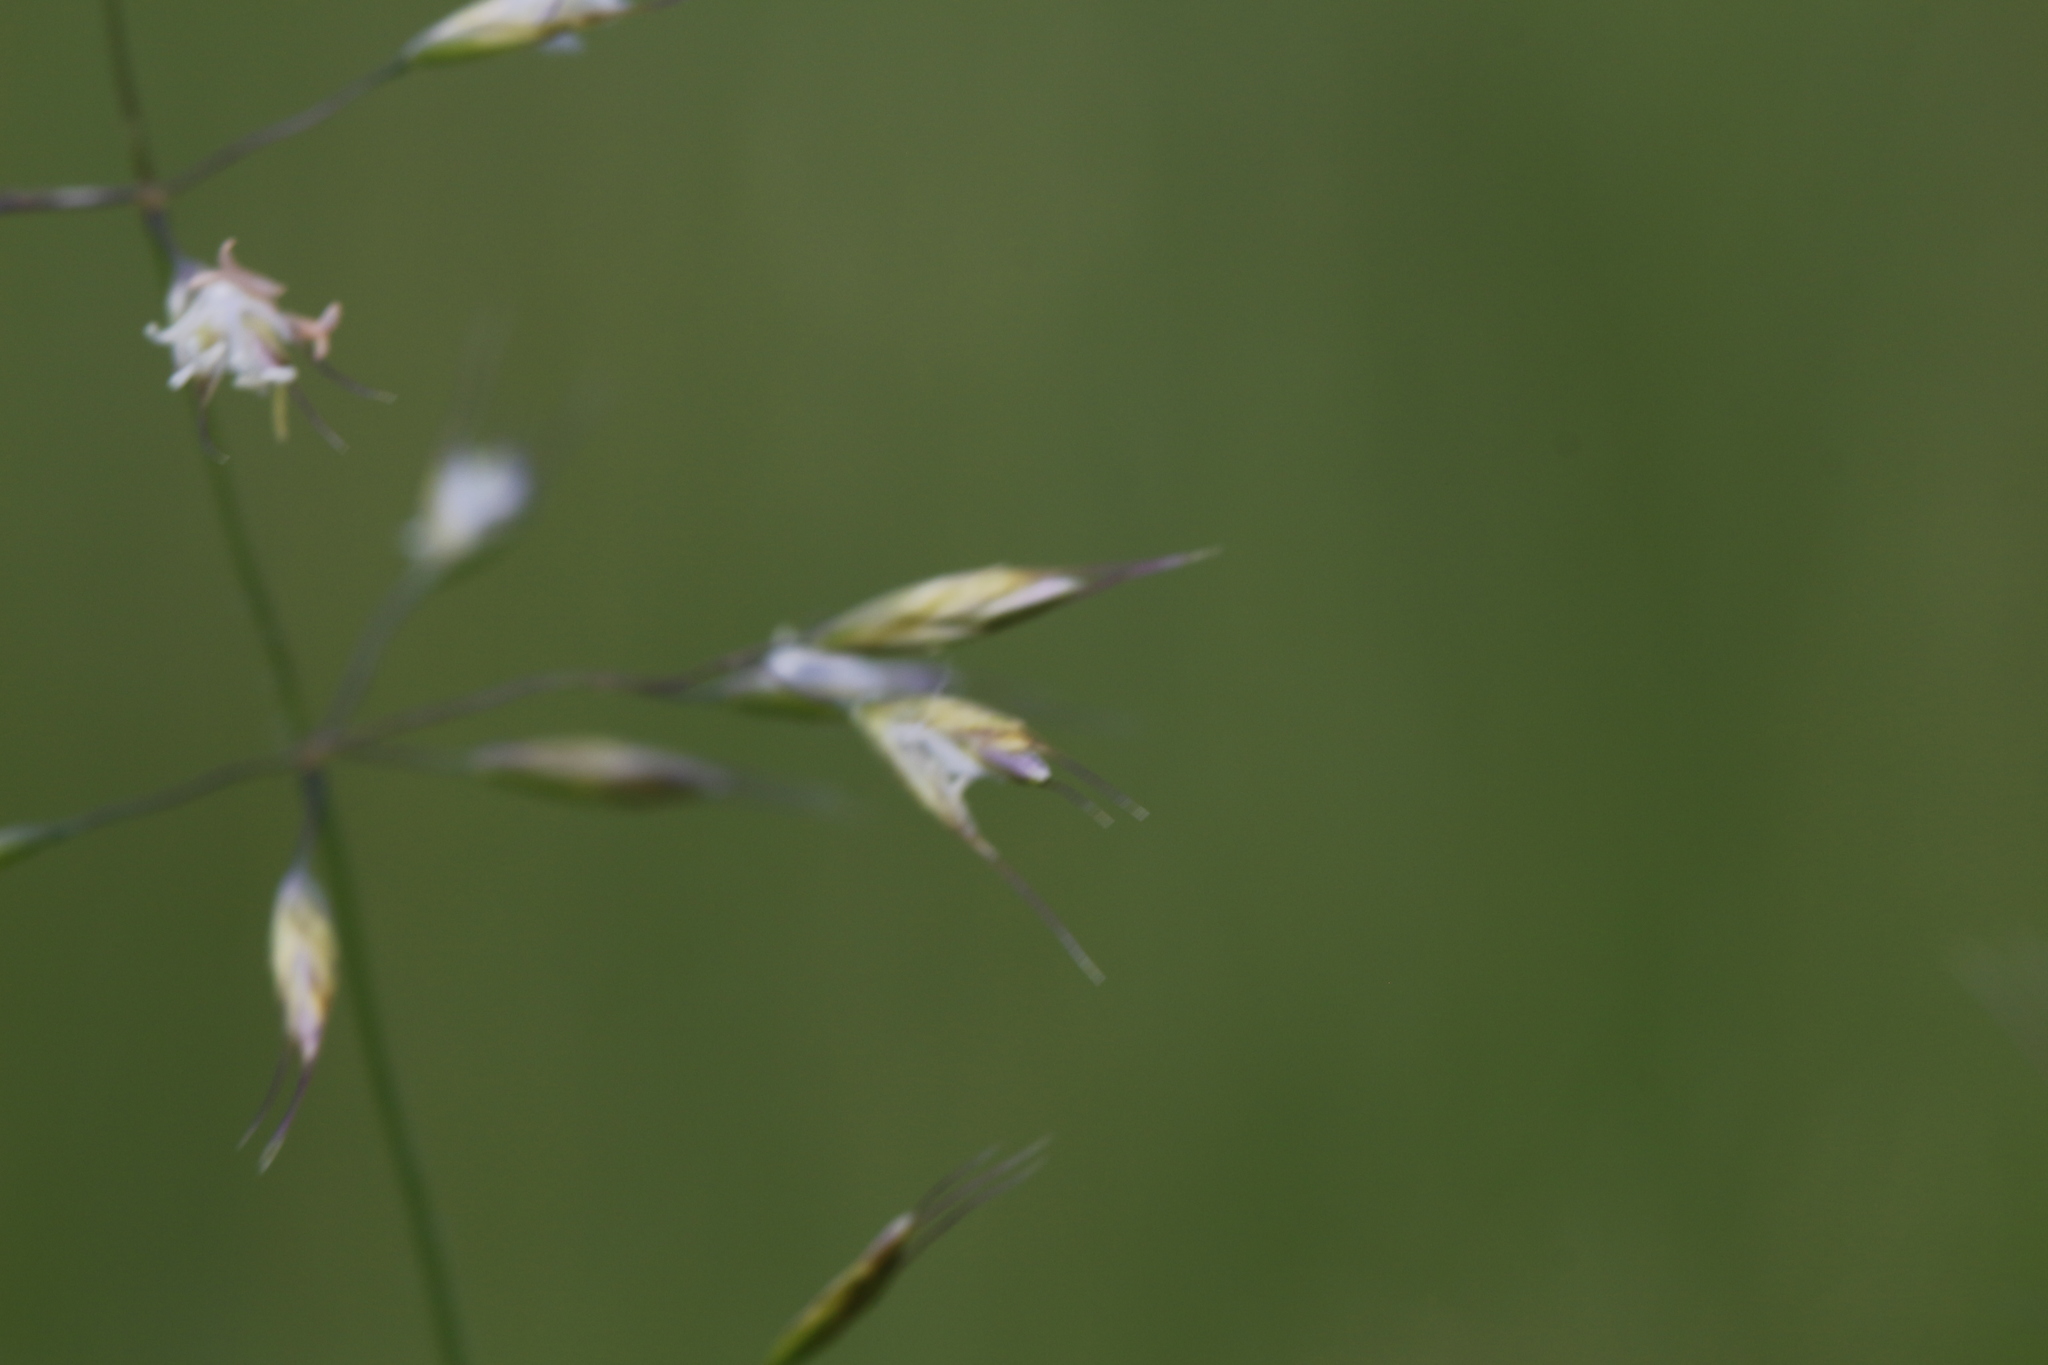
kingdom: Plantae
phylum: Tracheophyta
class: Liliopsida
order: Poales
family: Poaceae
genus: Trisetum
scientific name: Trisetum flavescens
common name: Yellow oat-grass
